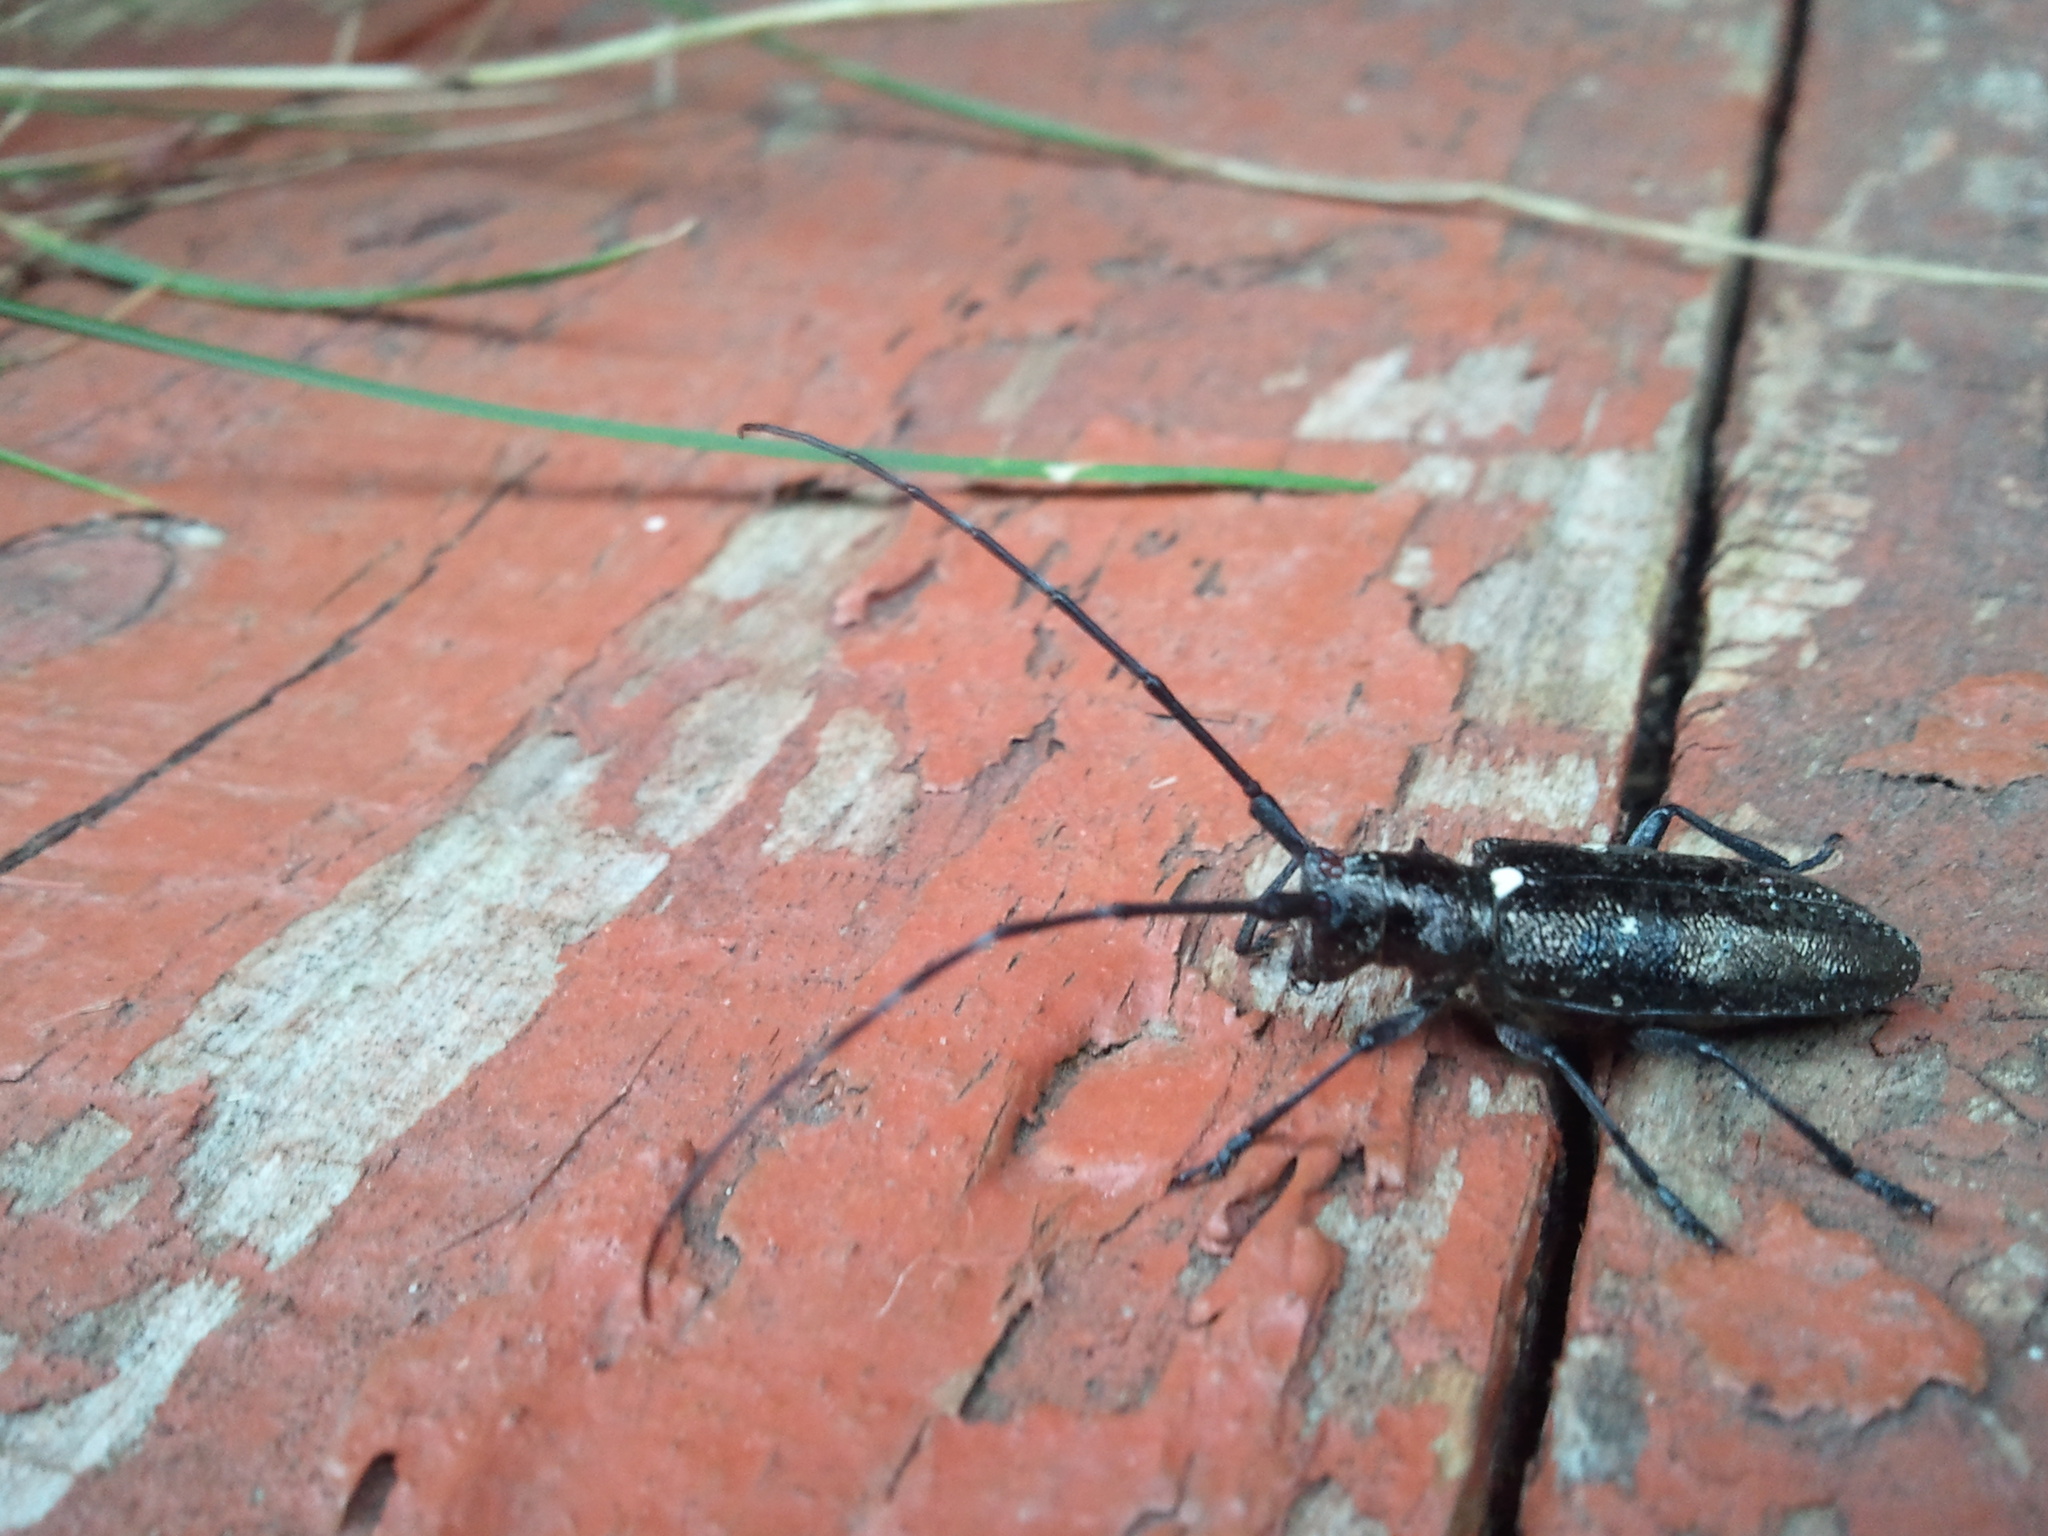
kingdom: Animalia
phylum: Arthropoda
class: Insecta
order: Coleoptera
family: Cerambycidae
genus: Monochamus
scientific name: Monochamus scutellatus
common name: White-spotted sawyer beetle
